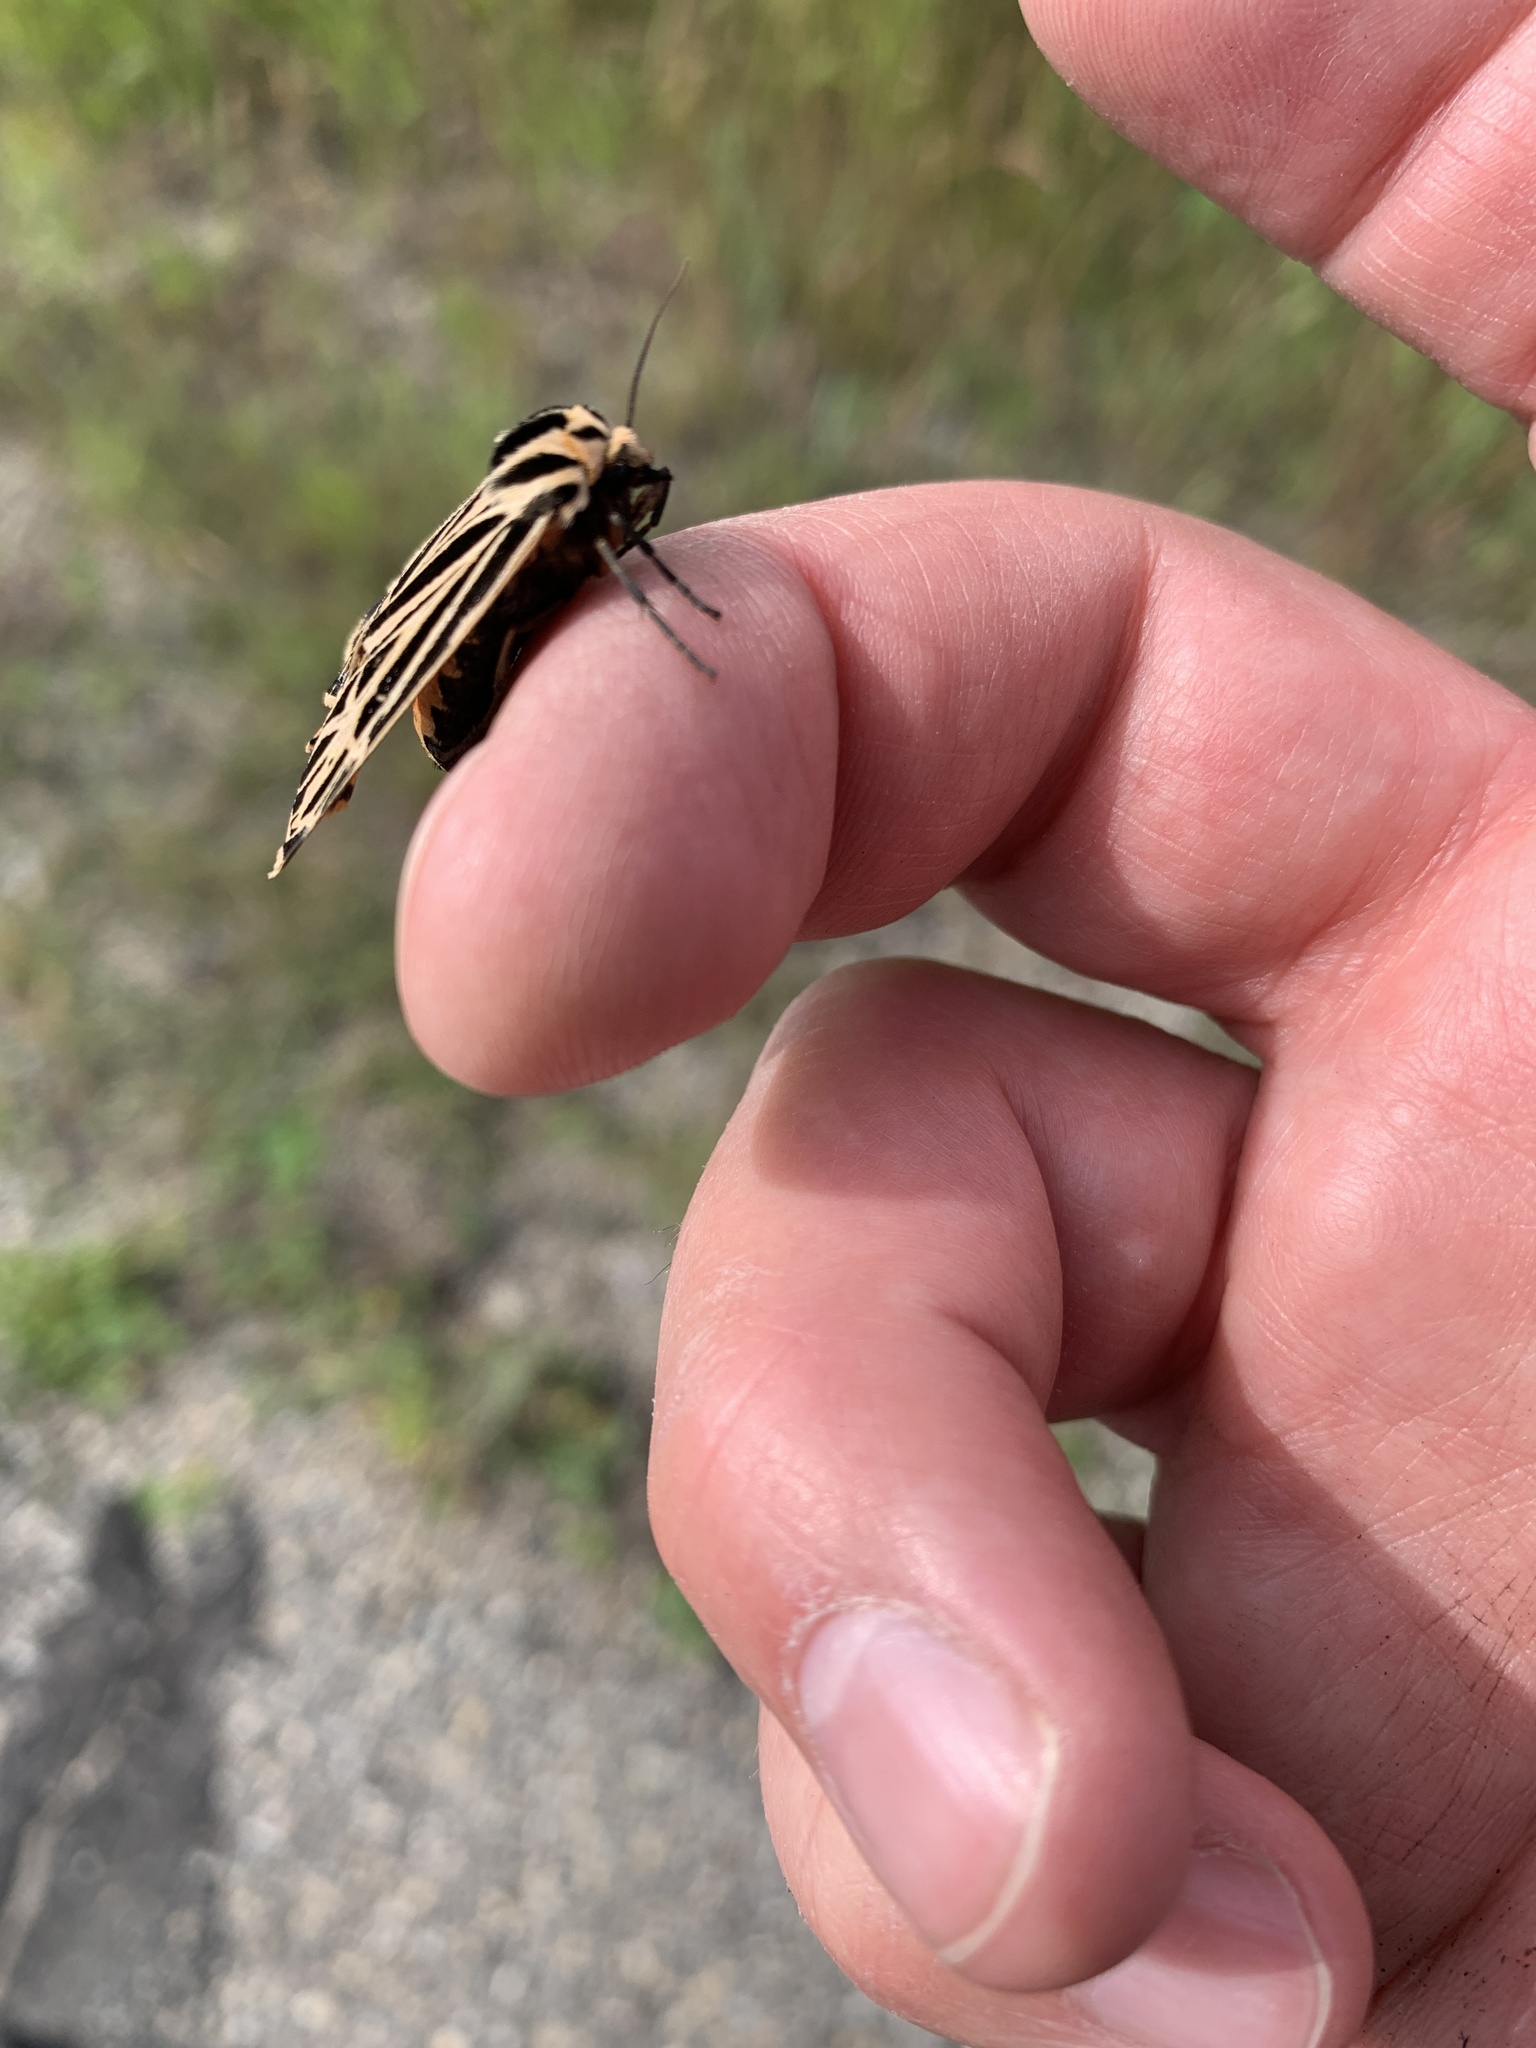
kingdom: Animalia
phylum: Arthropoda
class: Insecta
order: Lepidoptera
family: Erebidae
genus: Grammia
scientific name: Grammia virgo
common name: Virgin tiger moth
